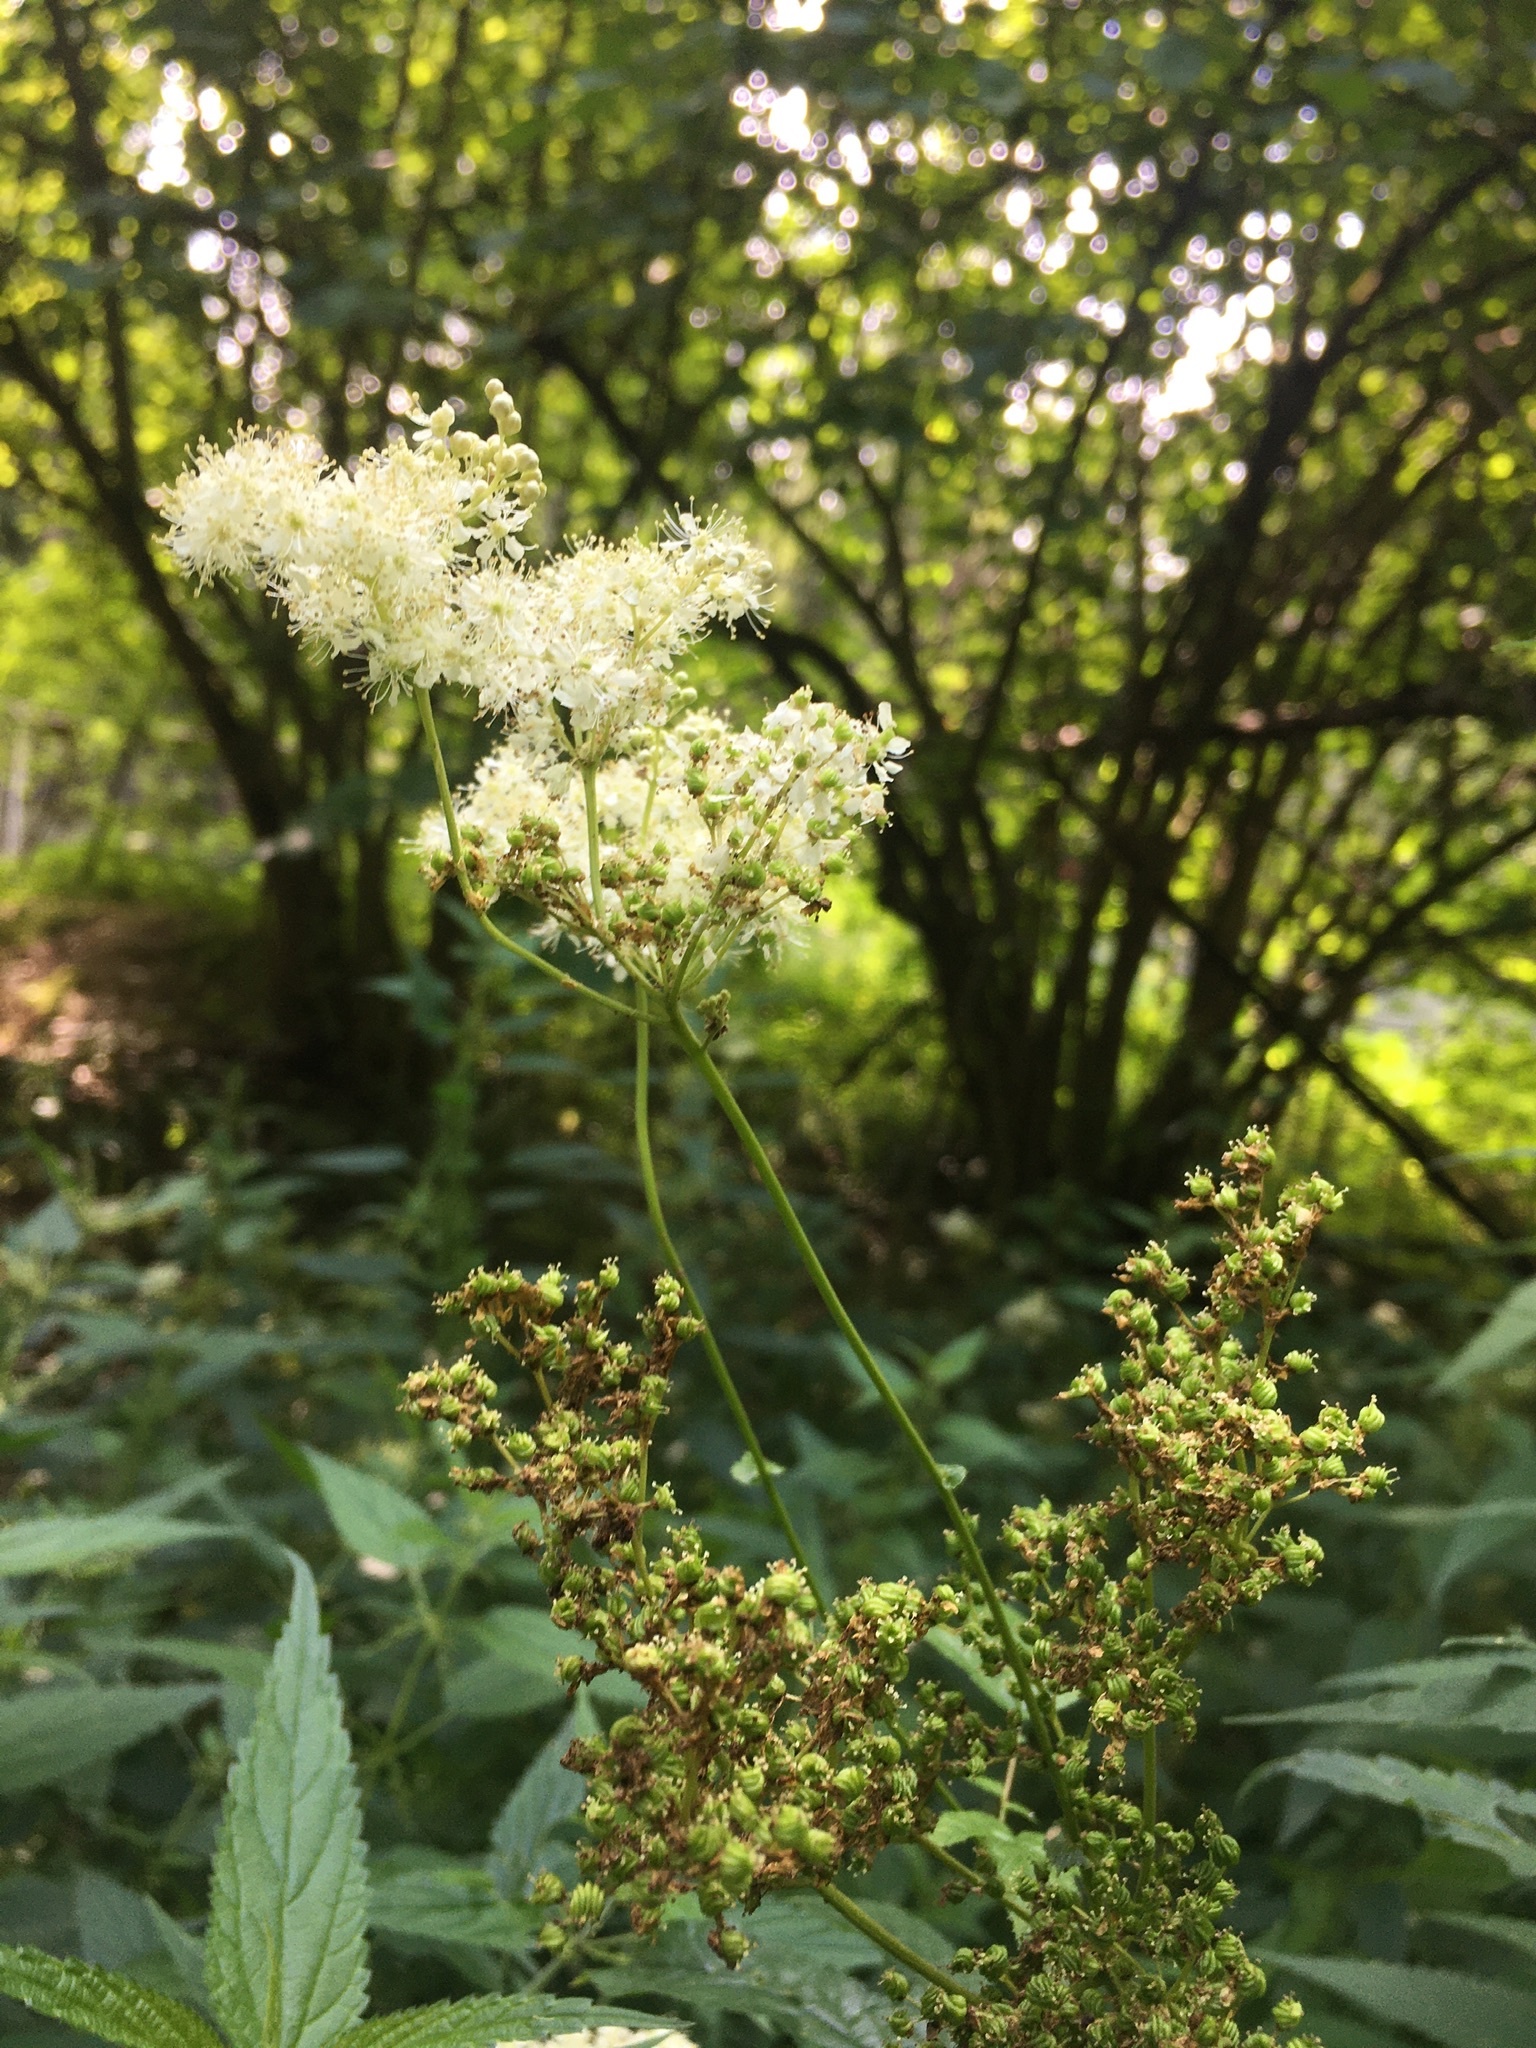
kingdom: Plantae
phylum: Tracheophyta
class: Magnoliopsida
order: Rosales
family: Rosaceae
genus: Filipendula
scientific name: Filipendula ulmaria
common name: Meadowsweet
